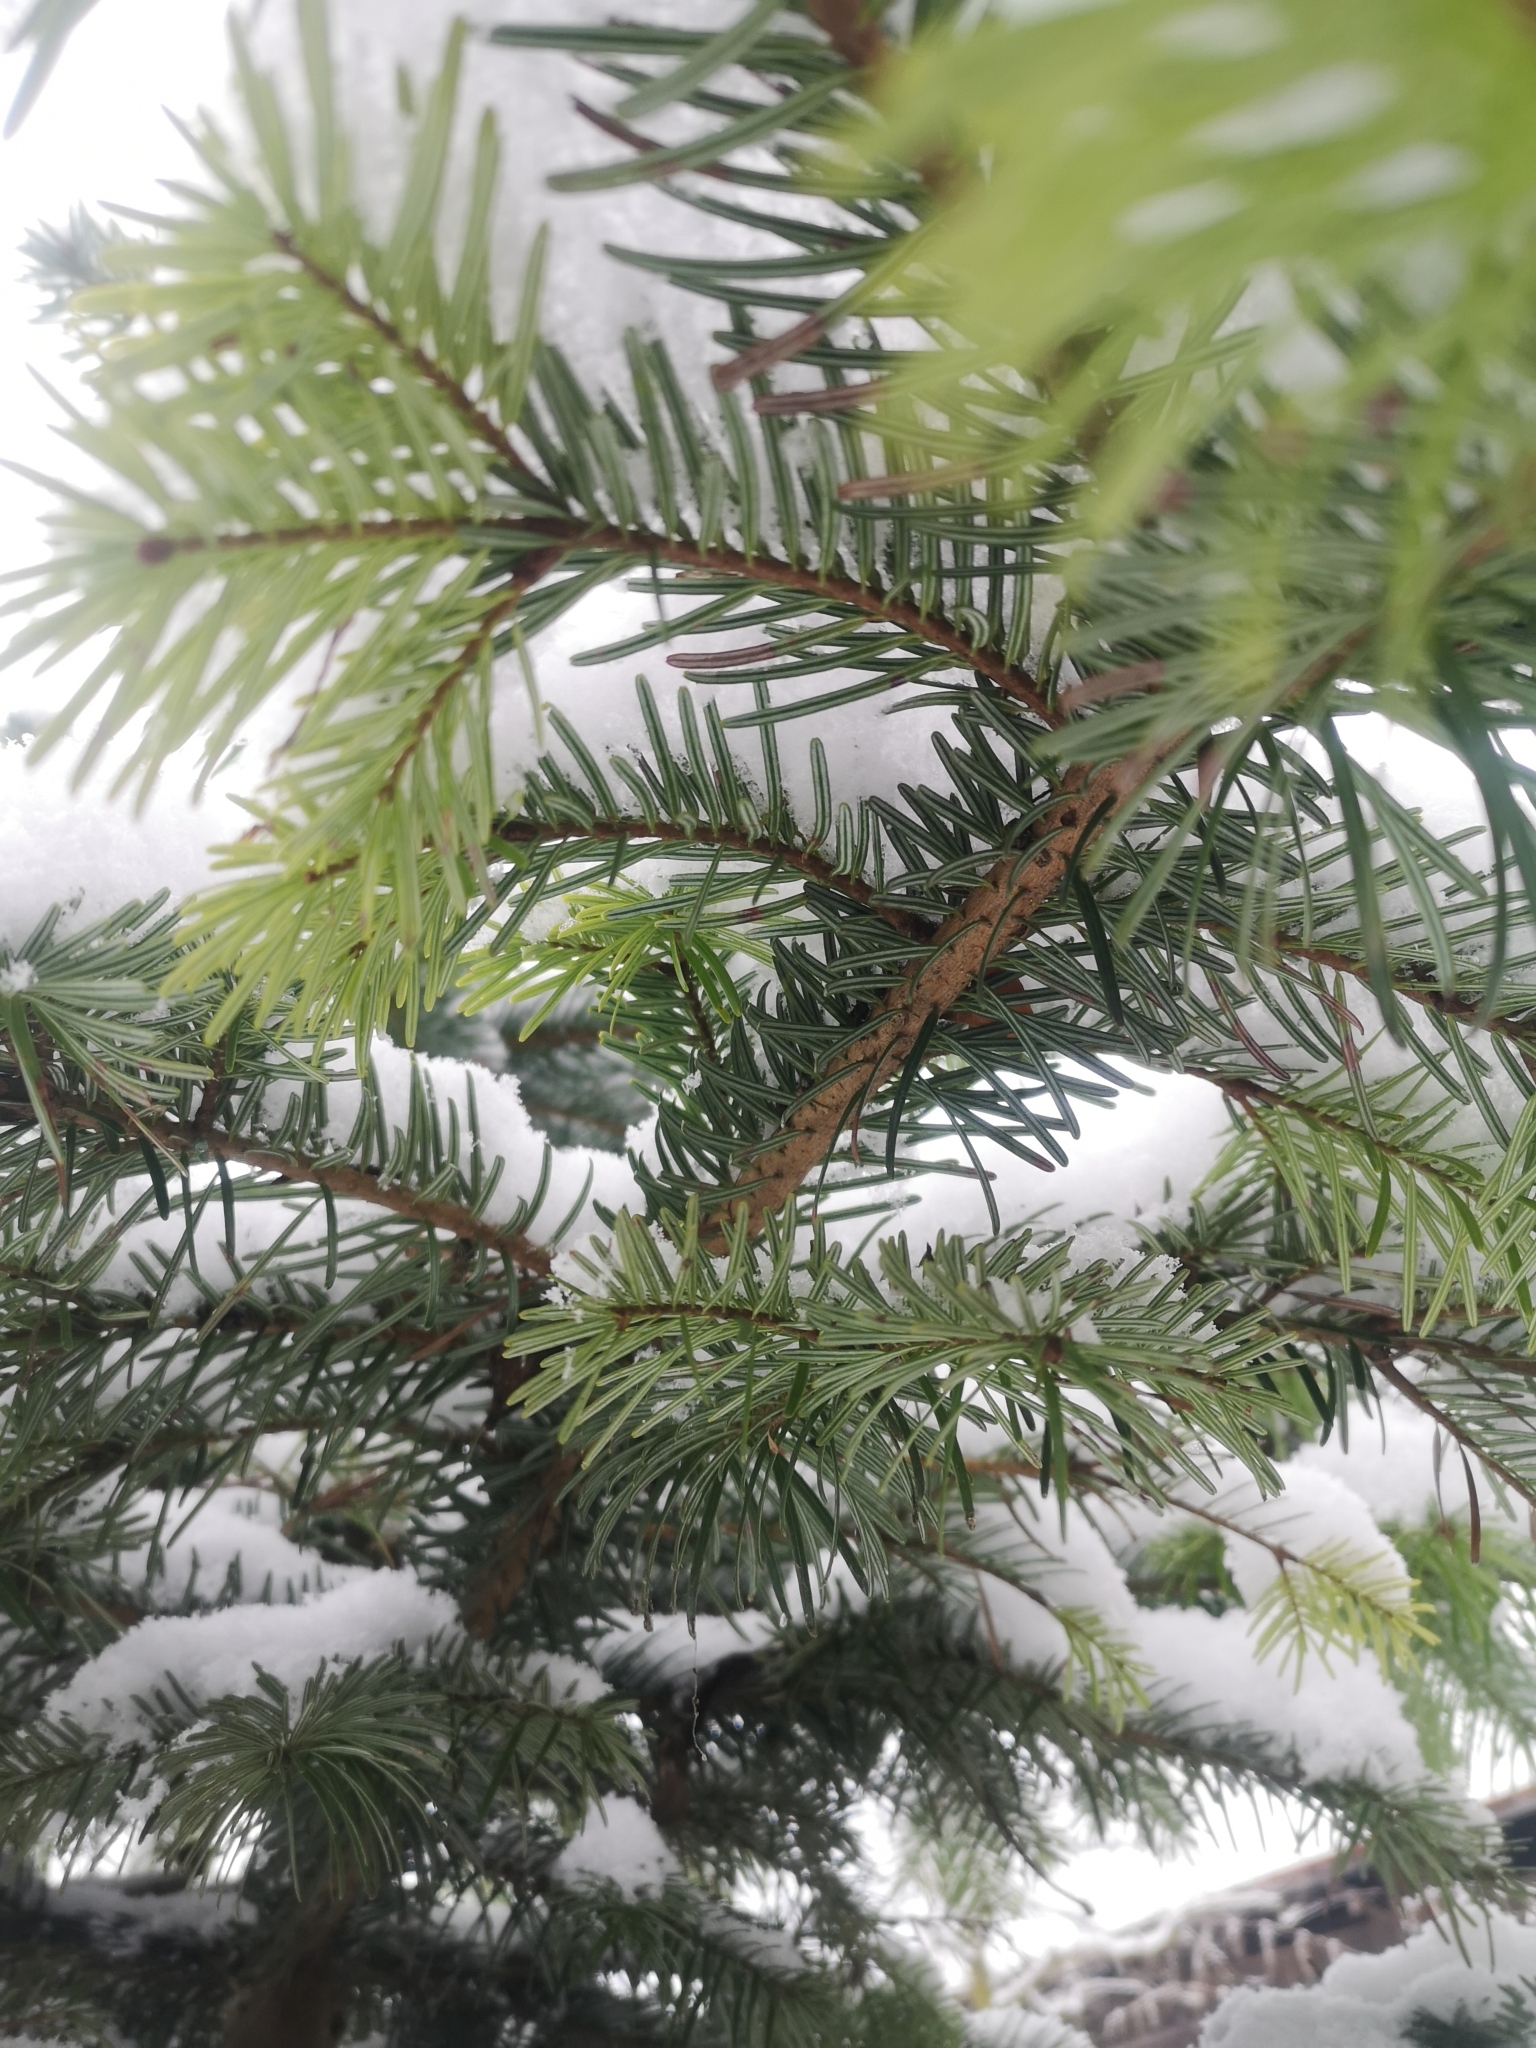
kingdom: Plantae
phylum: Tracheophyta
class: Pinopsida
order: Pinales
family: Pinaceae
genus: Abies
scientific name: Abies alba
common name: Silver fir
